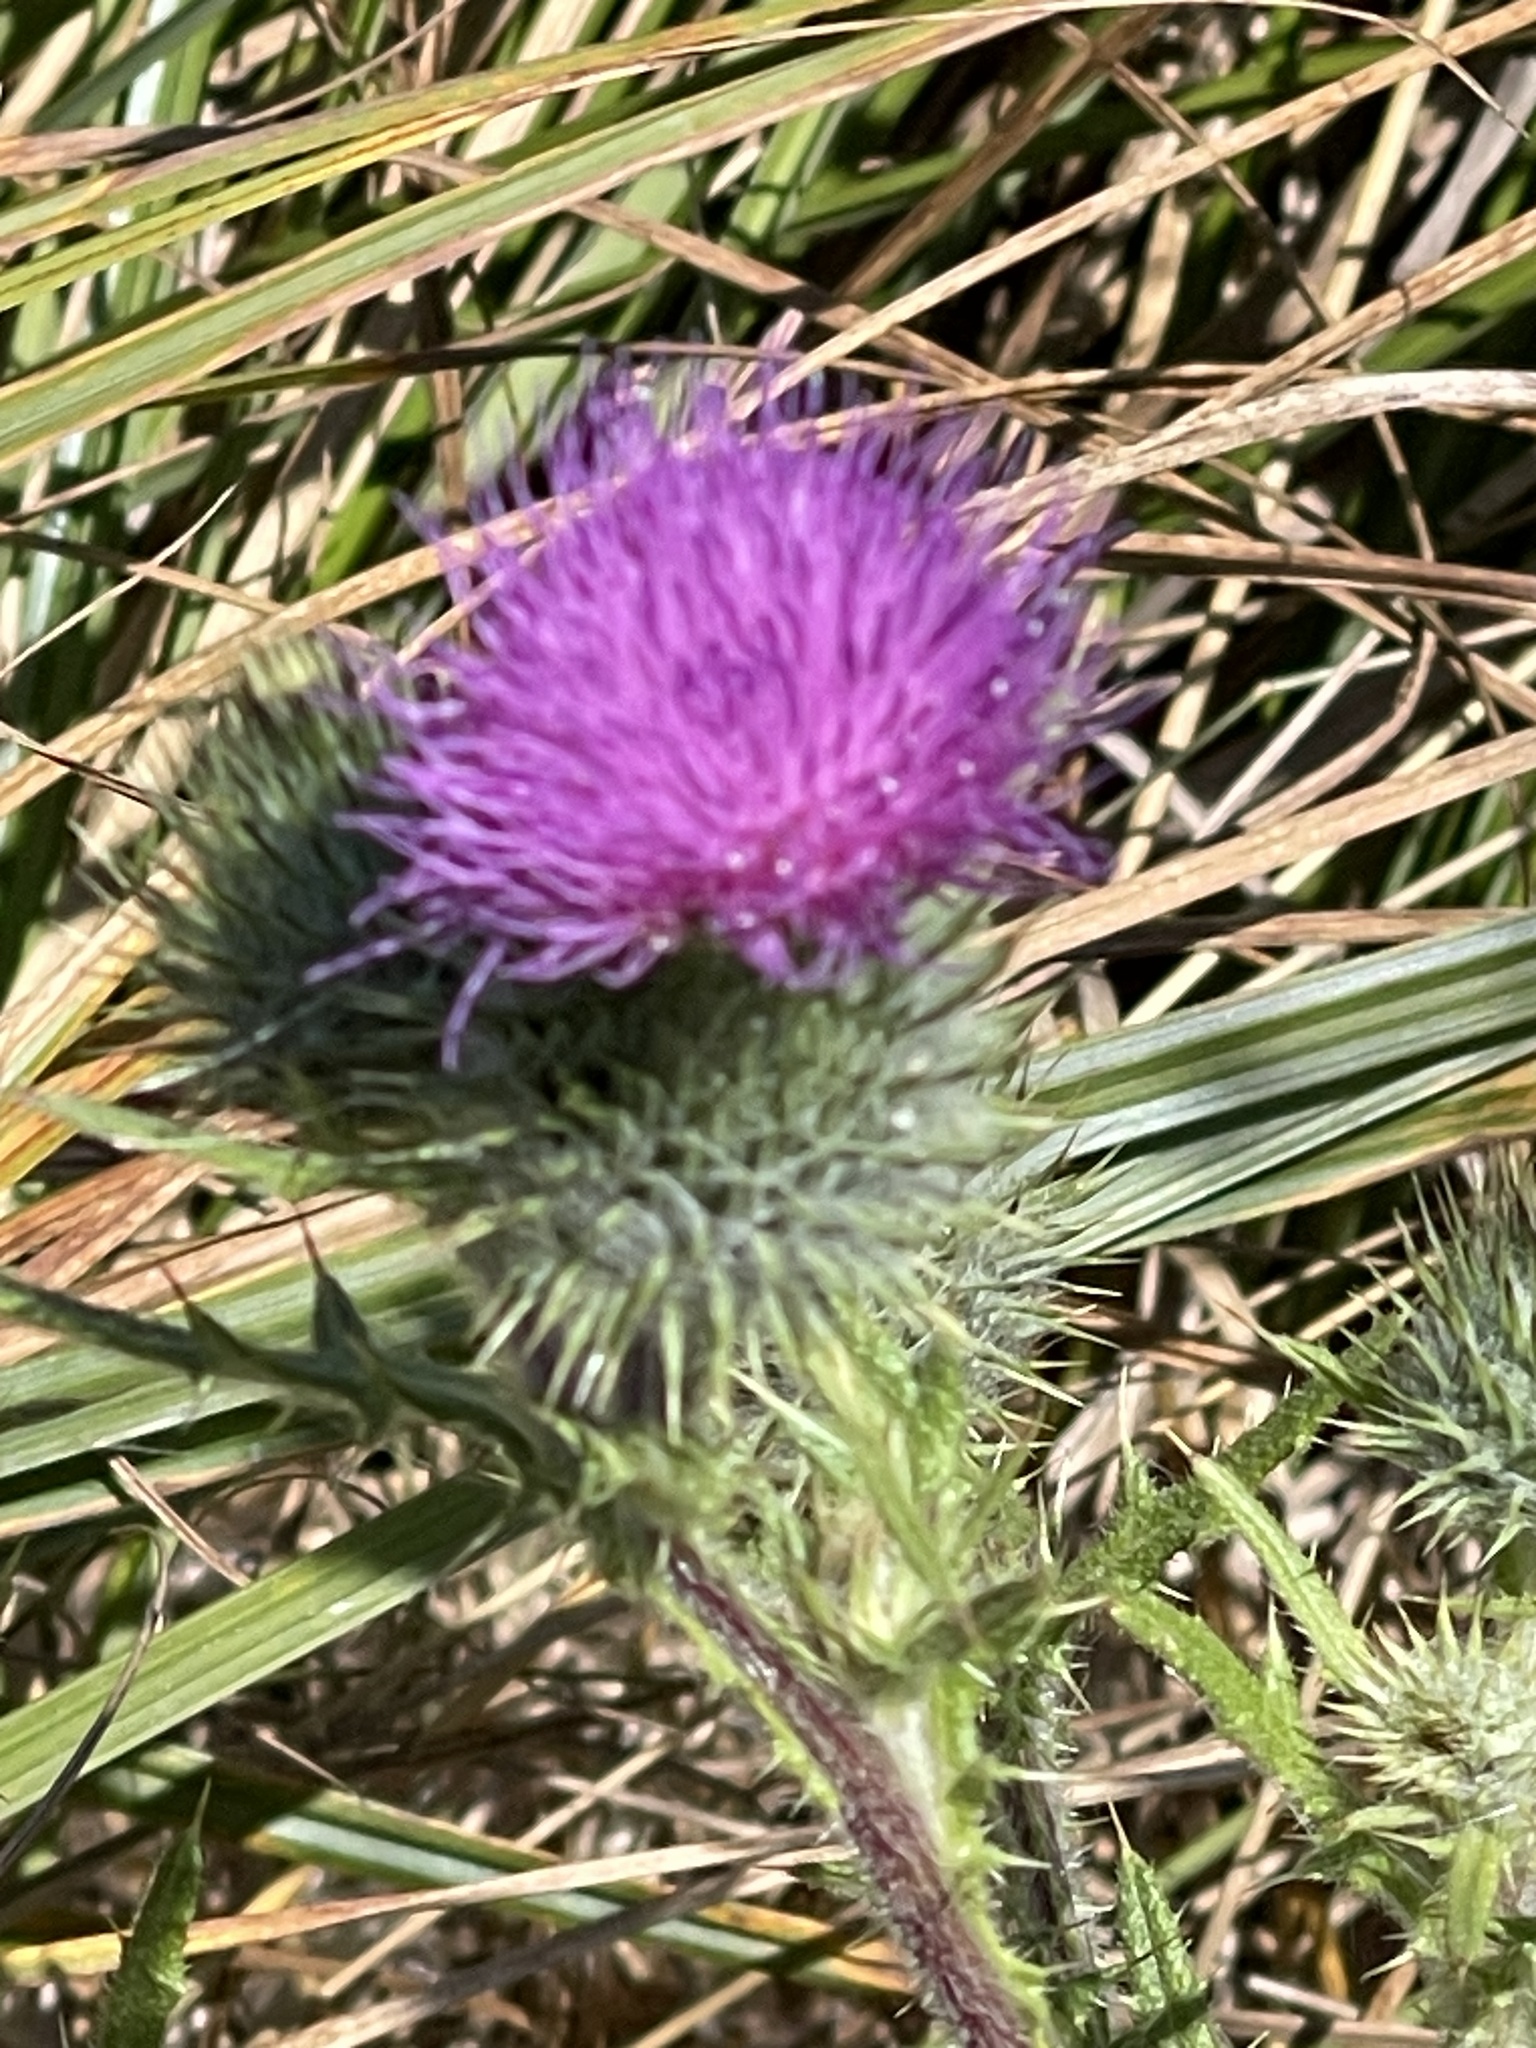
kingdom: Plantae
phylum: Tracheophyta
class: Magnoliopsida
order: Asterales
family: Asteraceae
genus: Cirsium
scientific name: Cirsium vulgare
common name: Bull thistle
